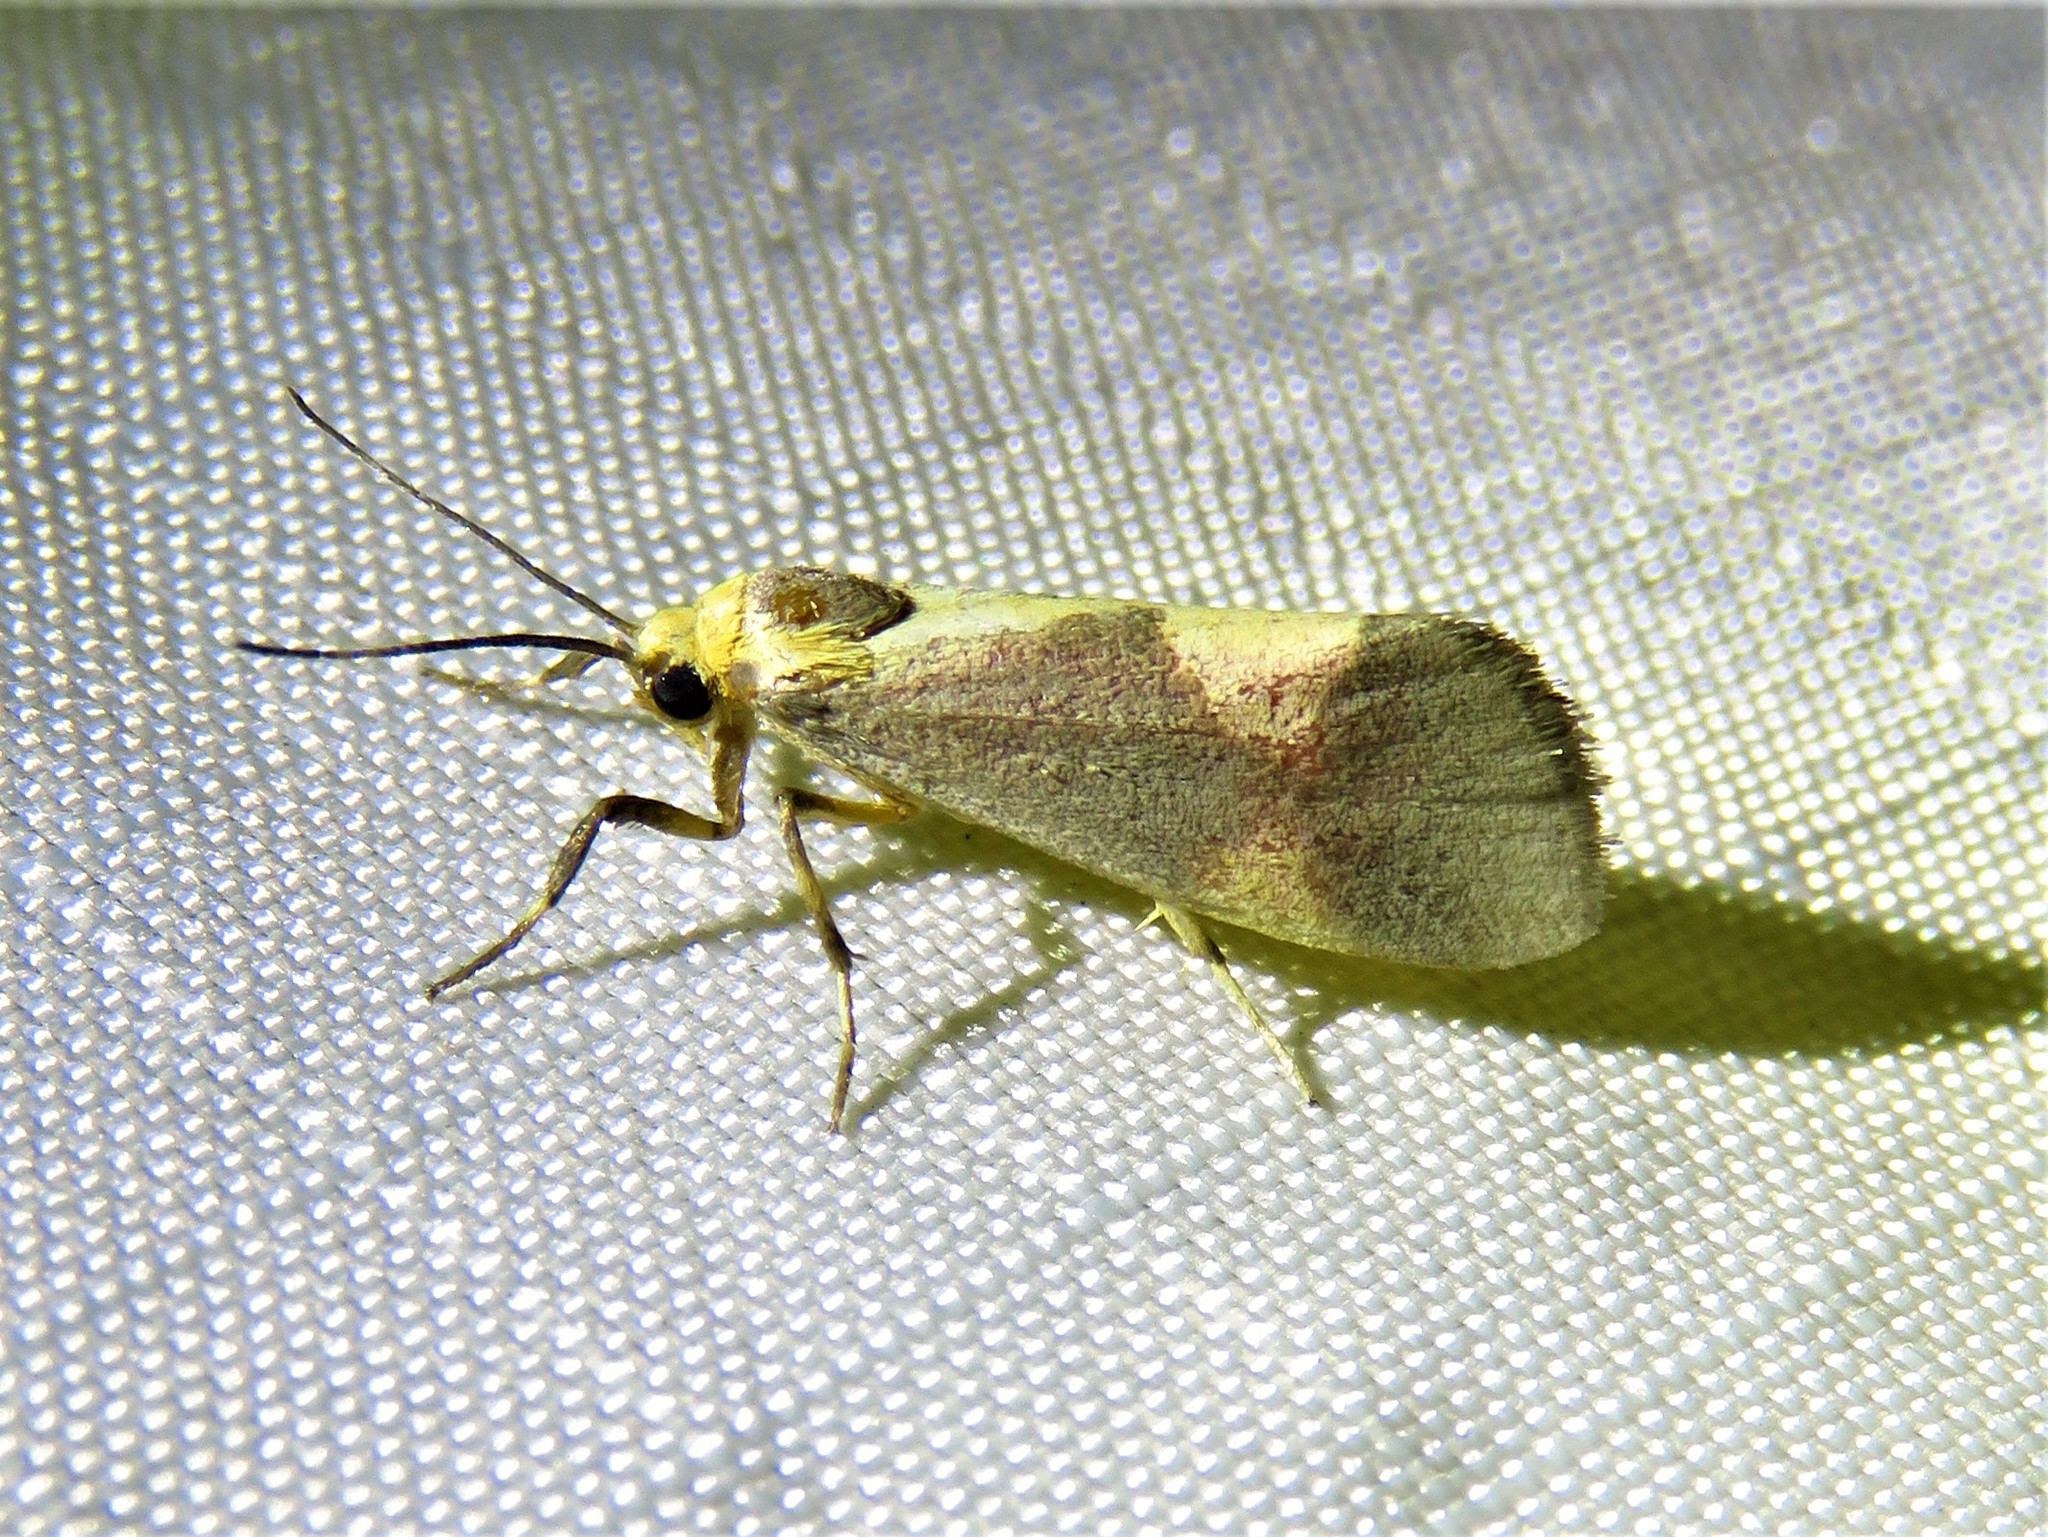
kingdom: Animalia
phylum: Arthropoda
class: Insecta
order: Lepidoptera
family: Erebidae
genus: Cisthene
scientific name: Cisthene unifascia
